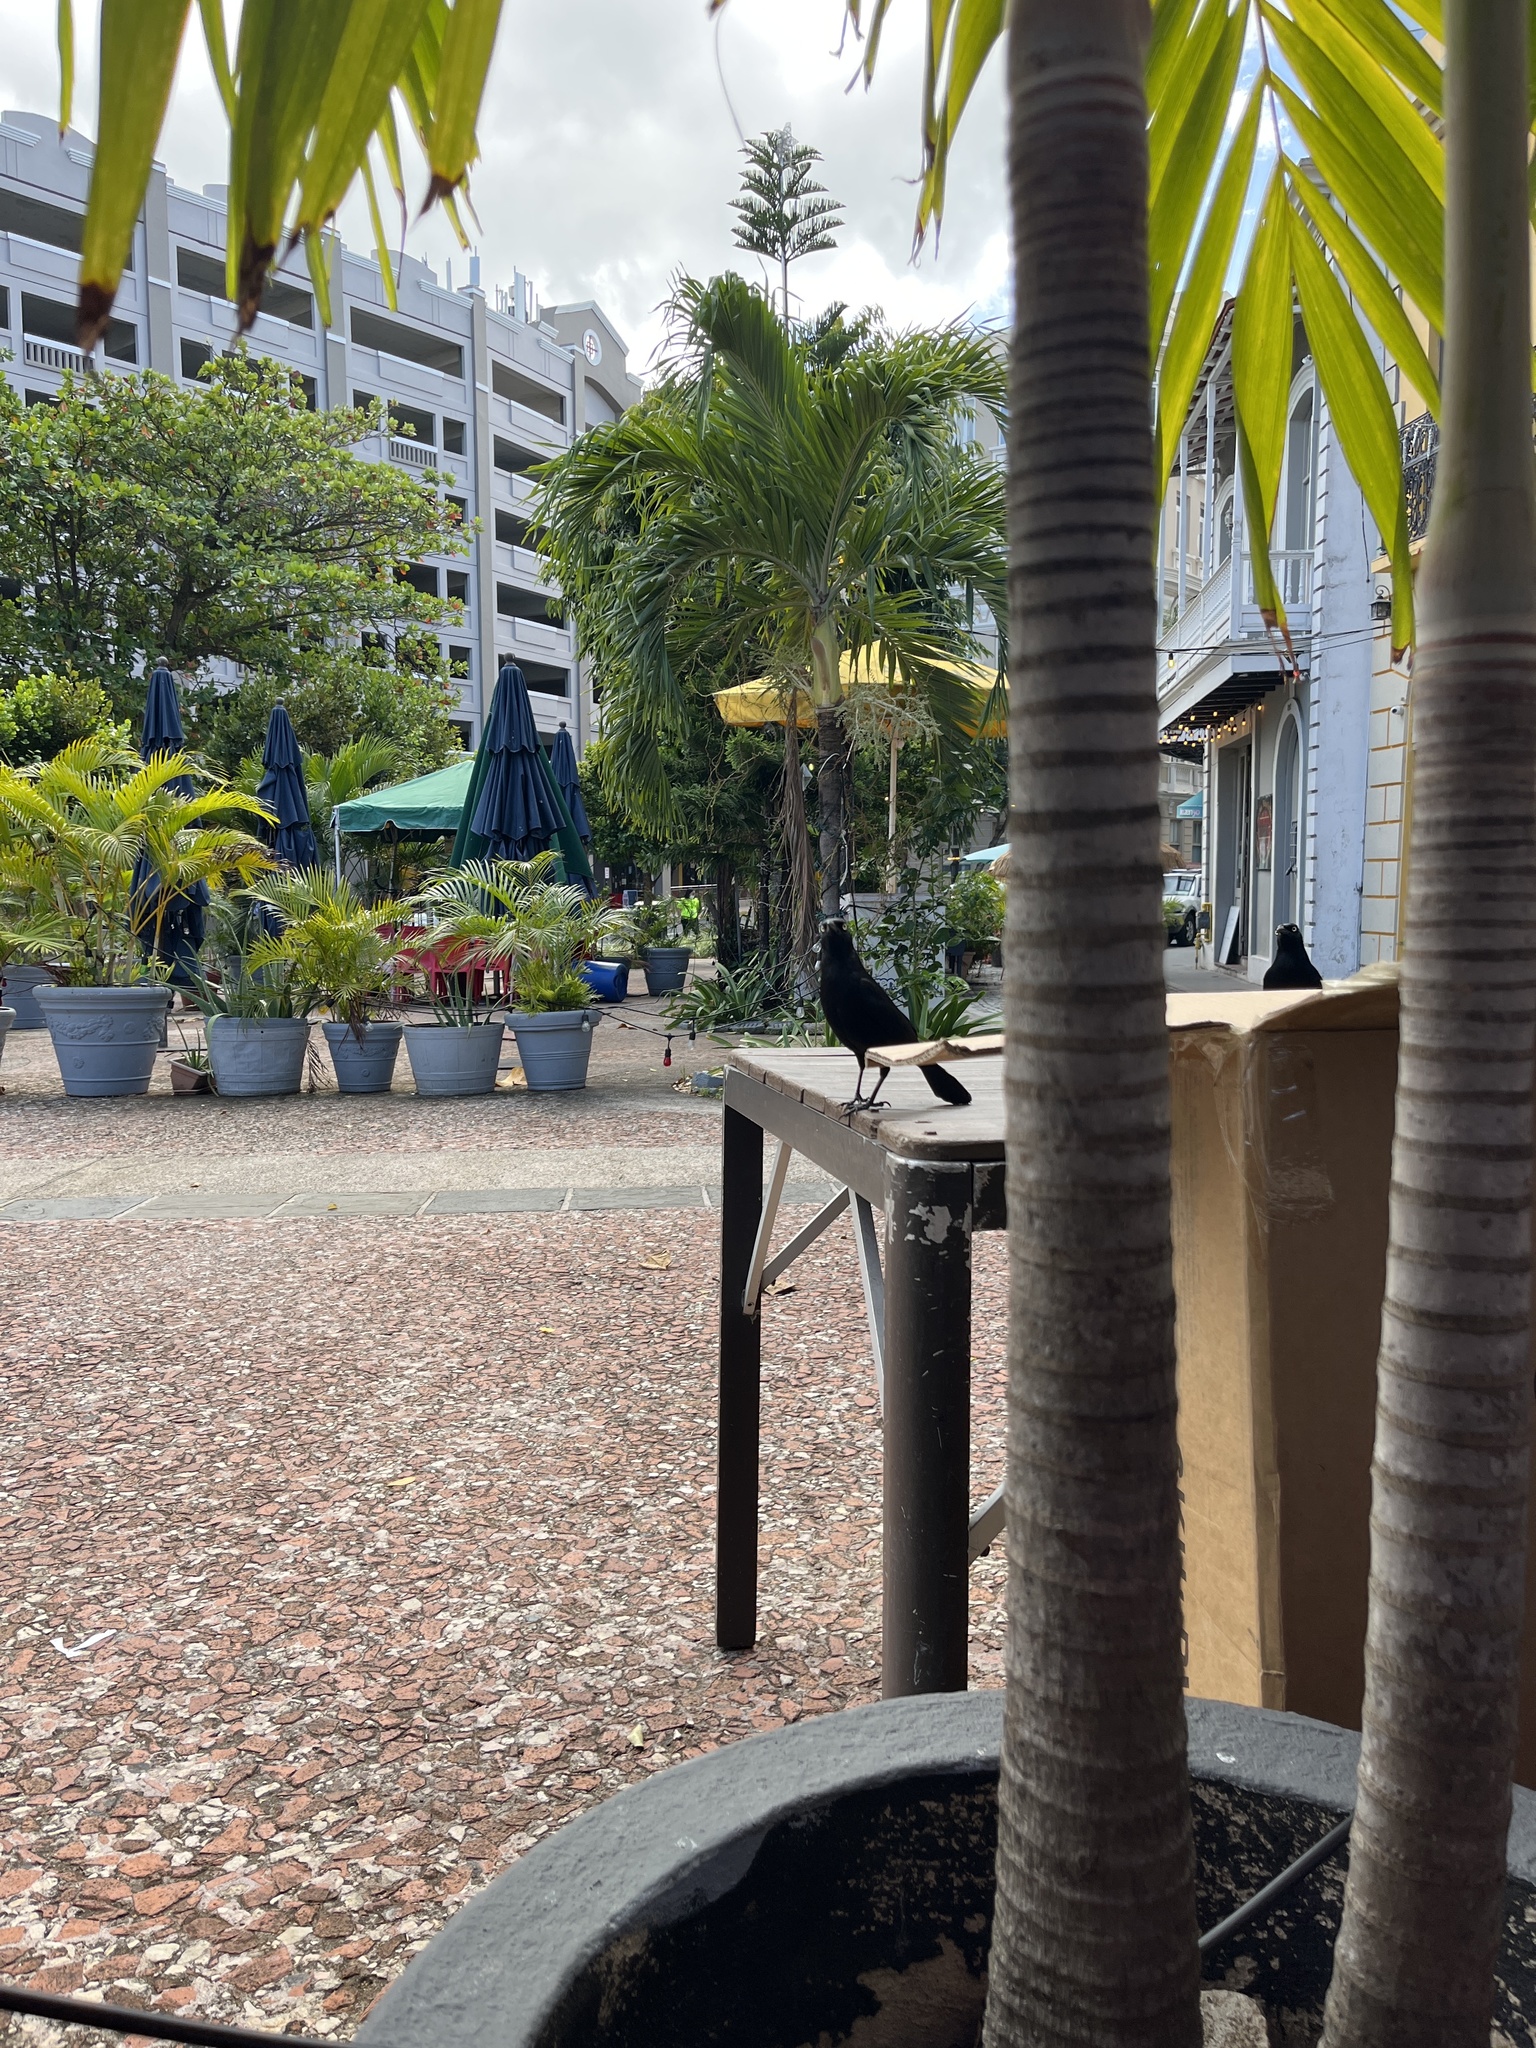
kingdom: Animalia
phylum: Chordata
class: Aves
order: Passeriformes
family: Icteridae
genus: Quiscalus
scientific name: Quiscalus niger
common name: Greater antillean grackle
